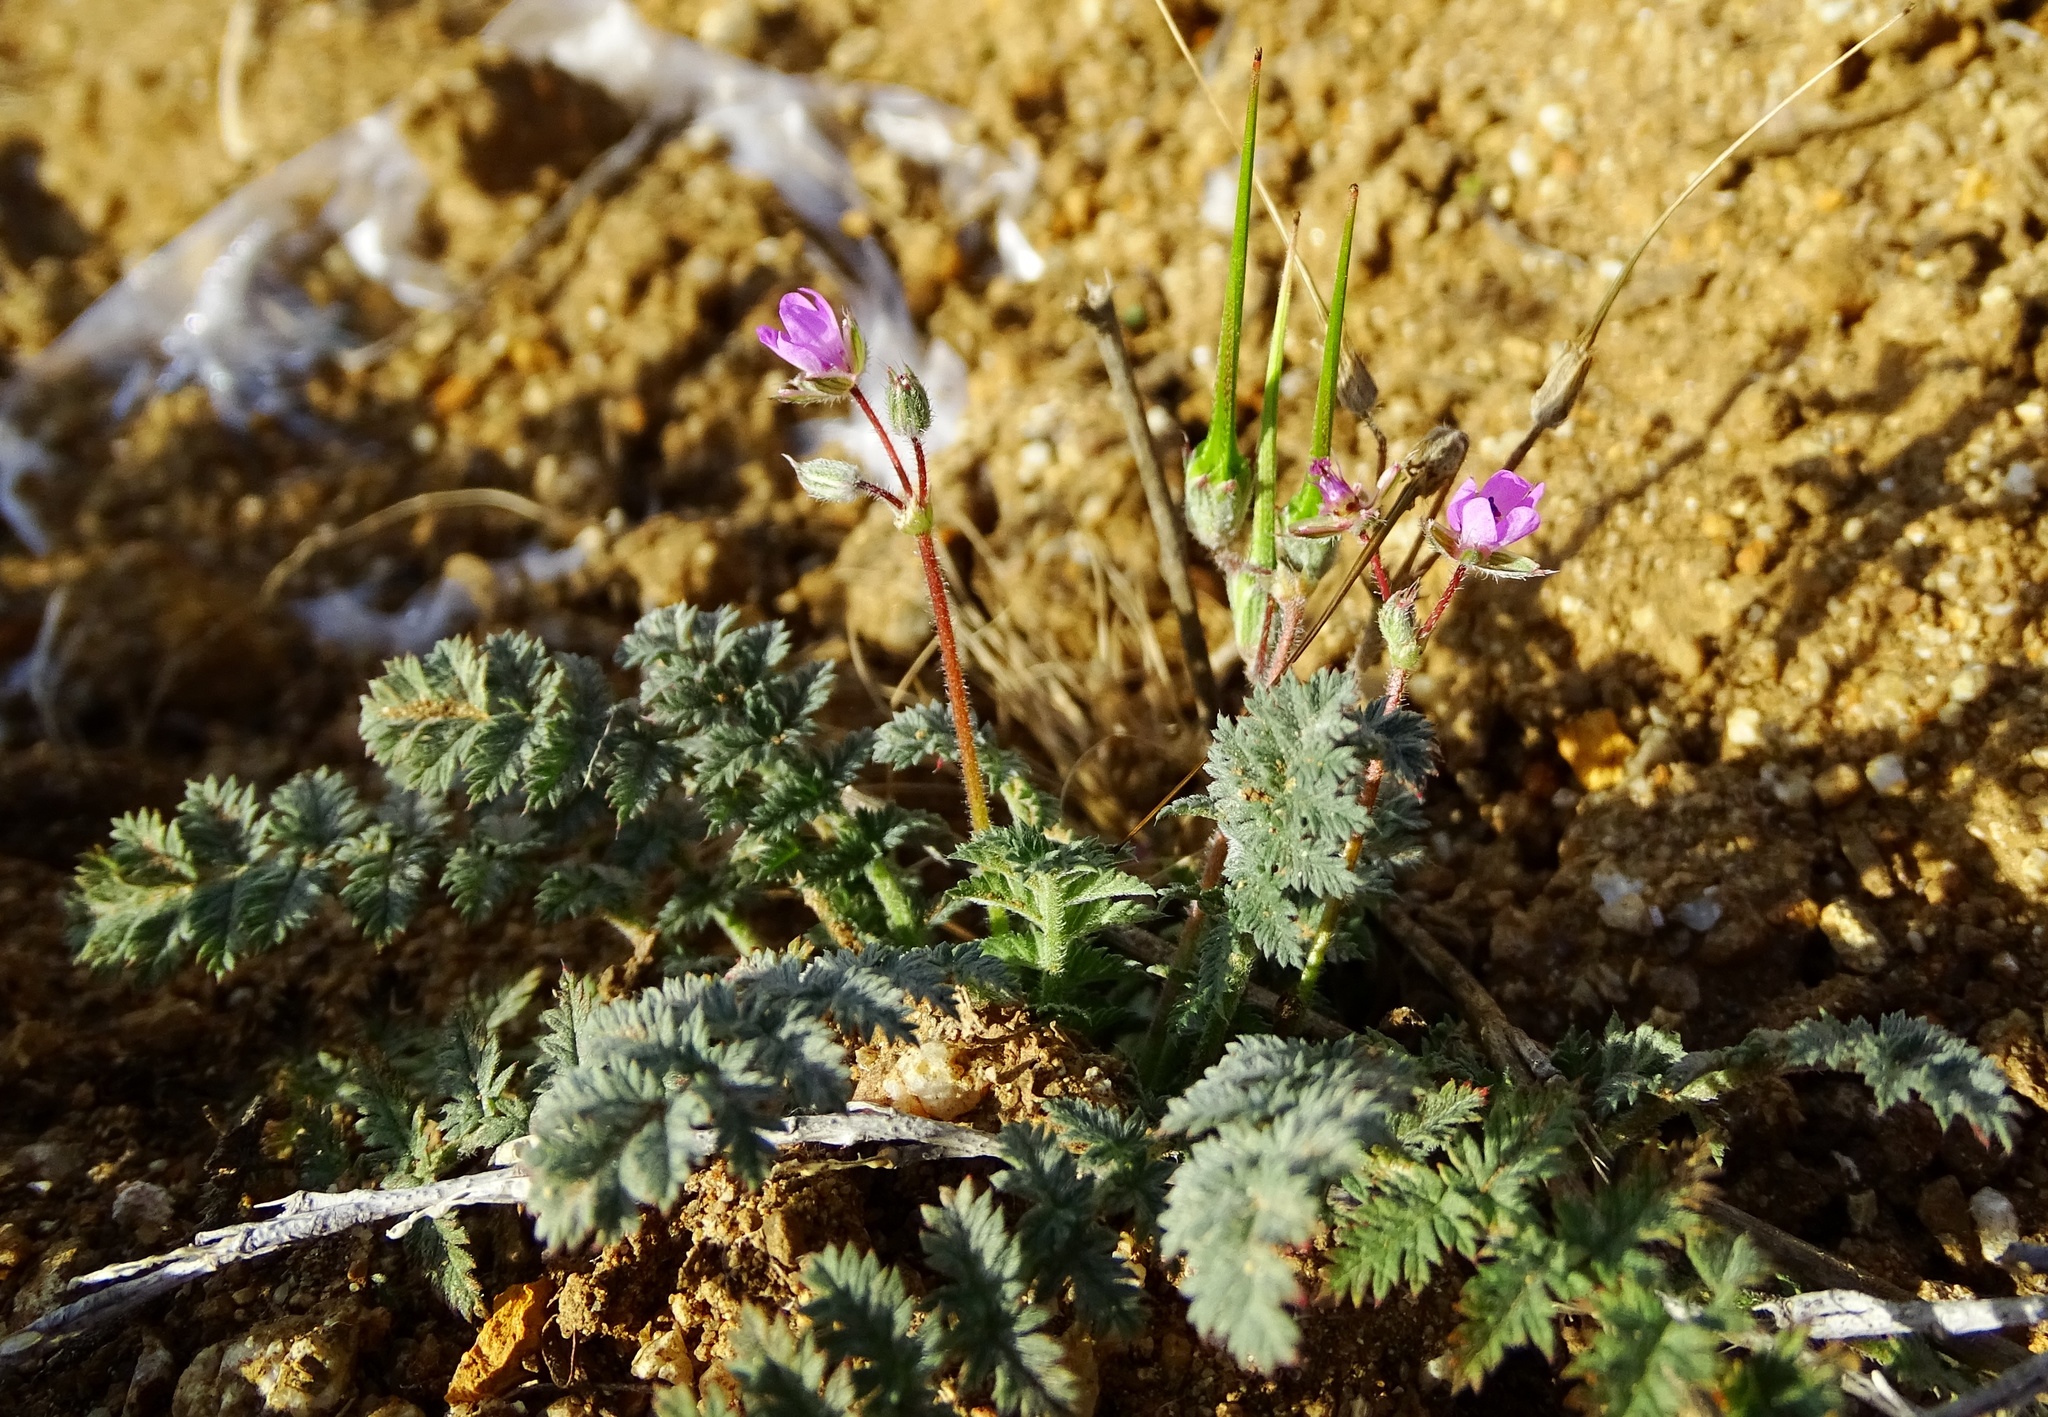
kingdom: Plantae
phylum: Tracheophyta
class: Magnoliopsida
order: Geraniales
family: Geraniaceae
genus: Erodium
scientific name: Erodium cicutarium
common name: Common stork's-bill
